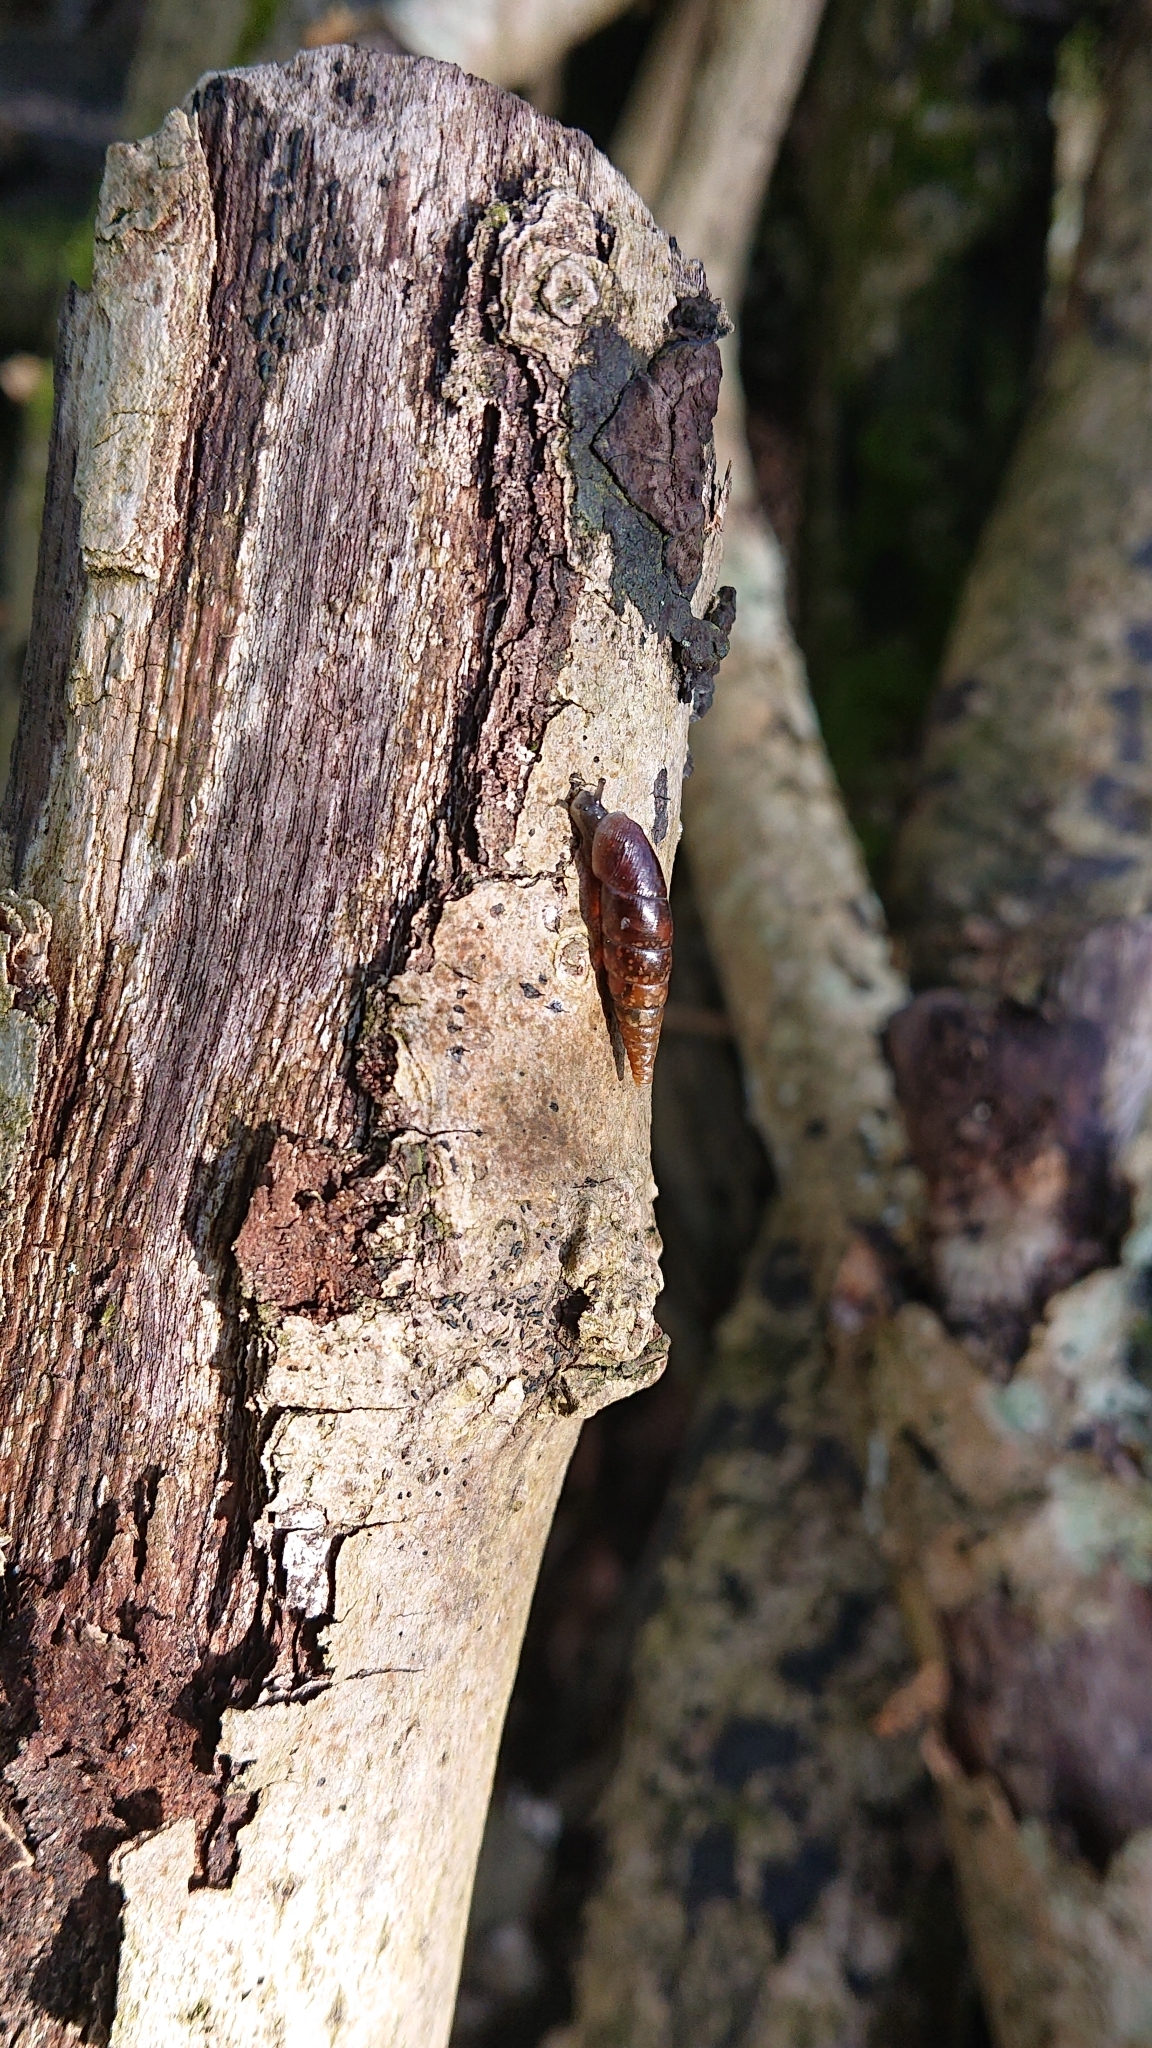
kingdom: Animalia
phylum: Mollusca
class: Gastropoda
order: Stylommatophora
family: Clausiliidae
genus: Cochlodina
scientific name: Cochlodina laminata
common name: Plaited door snail
